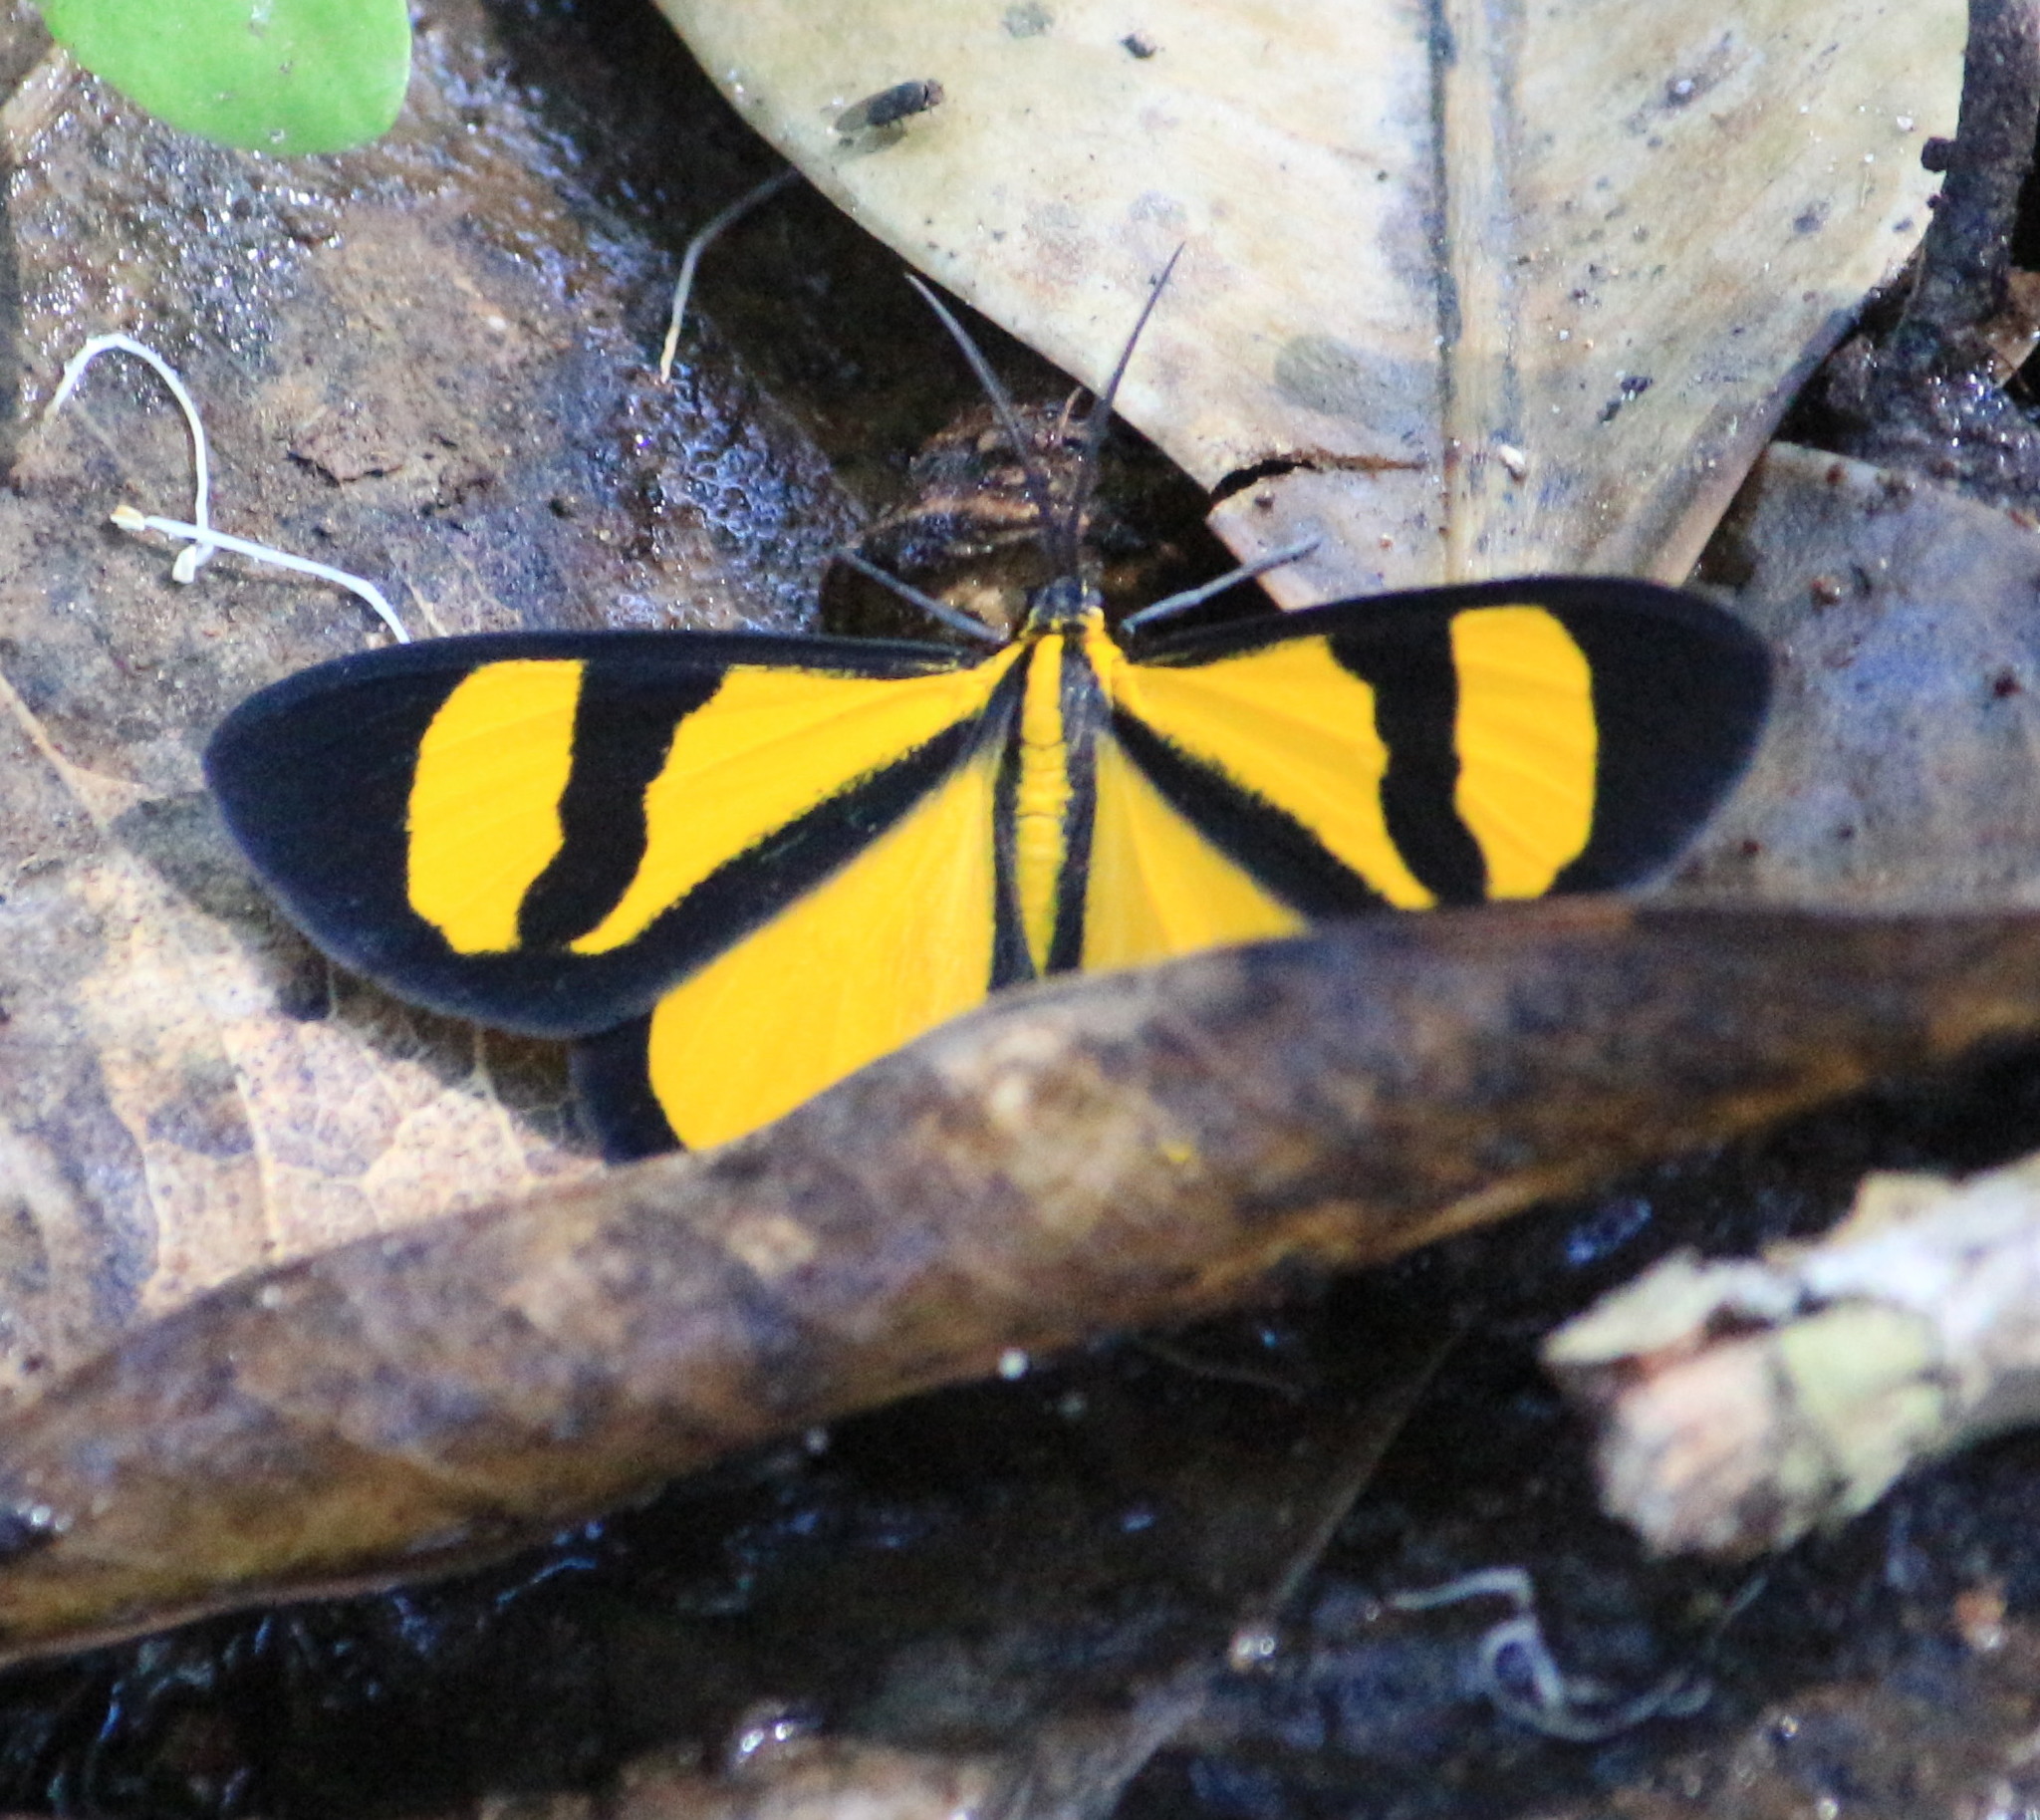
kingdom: Animalia
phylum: Arthropoda
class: Insecta
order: Lepidoptera
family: Geometridae
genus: Smicropus
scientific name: Smicropus laeta
